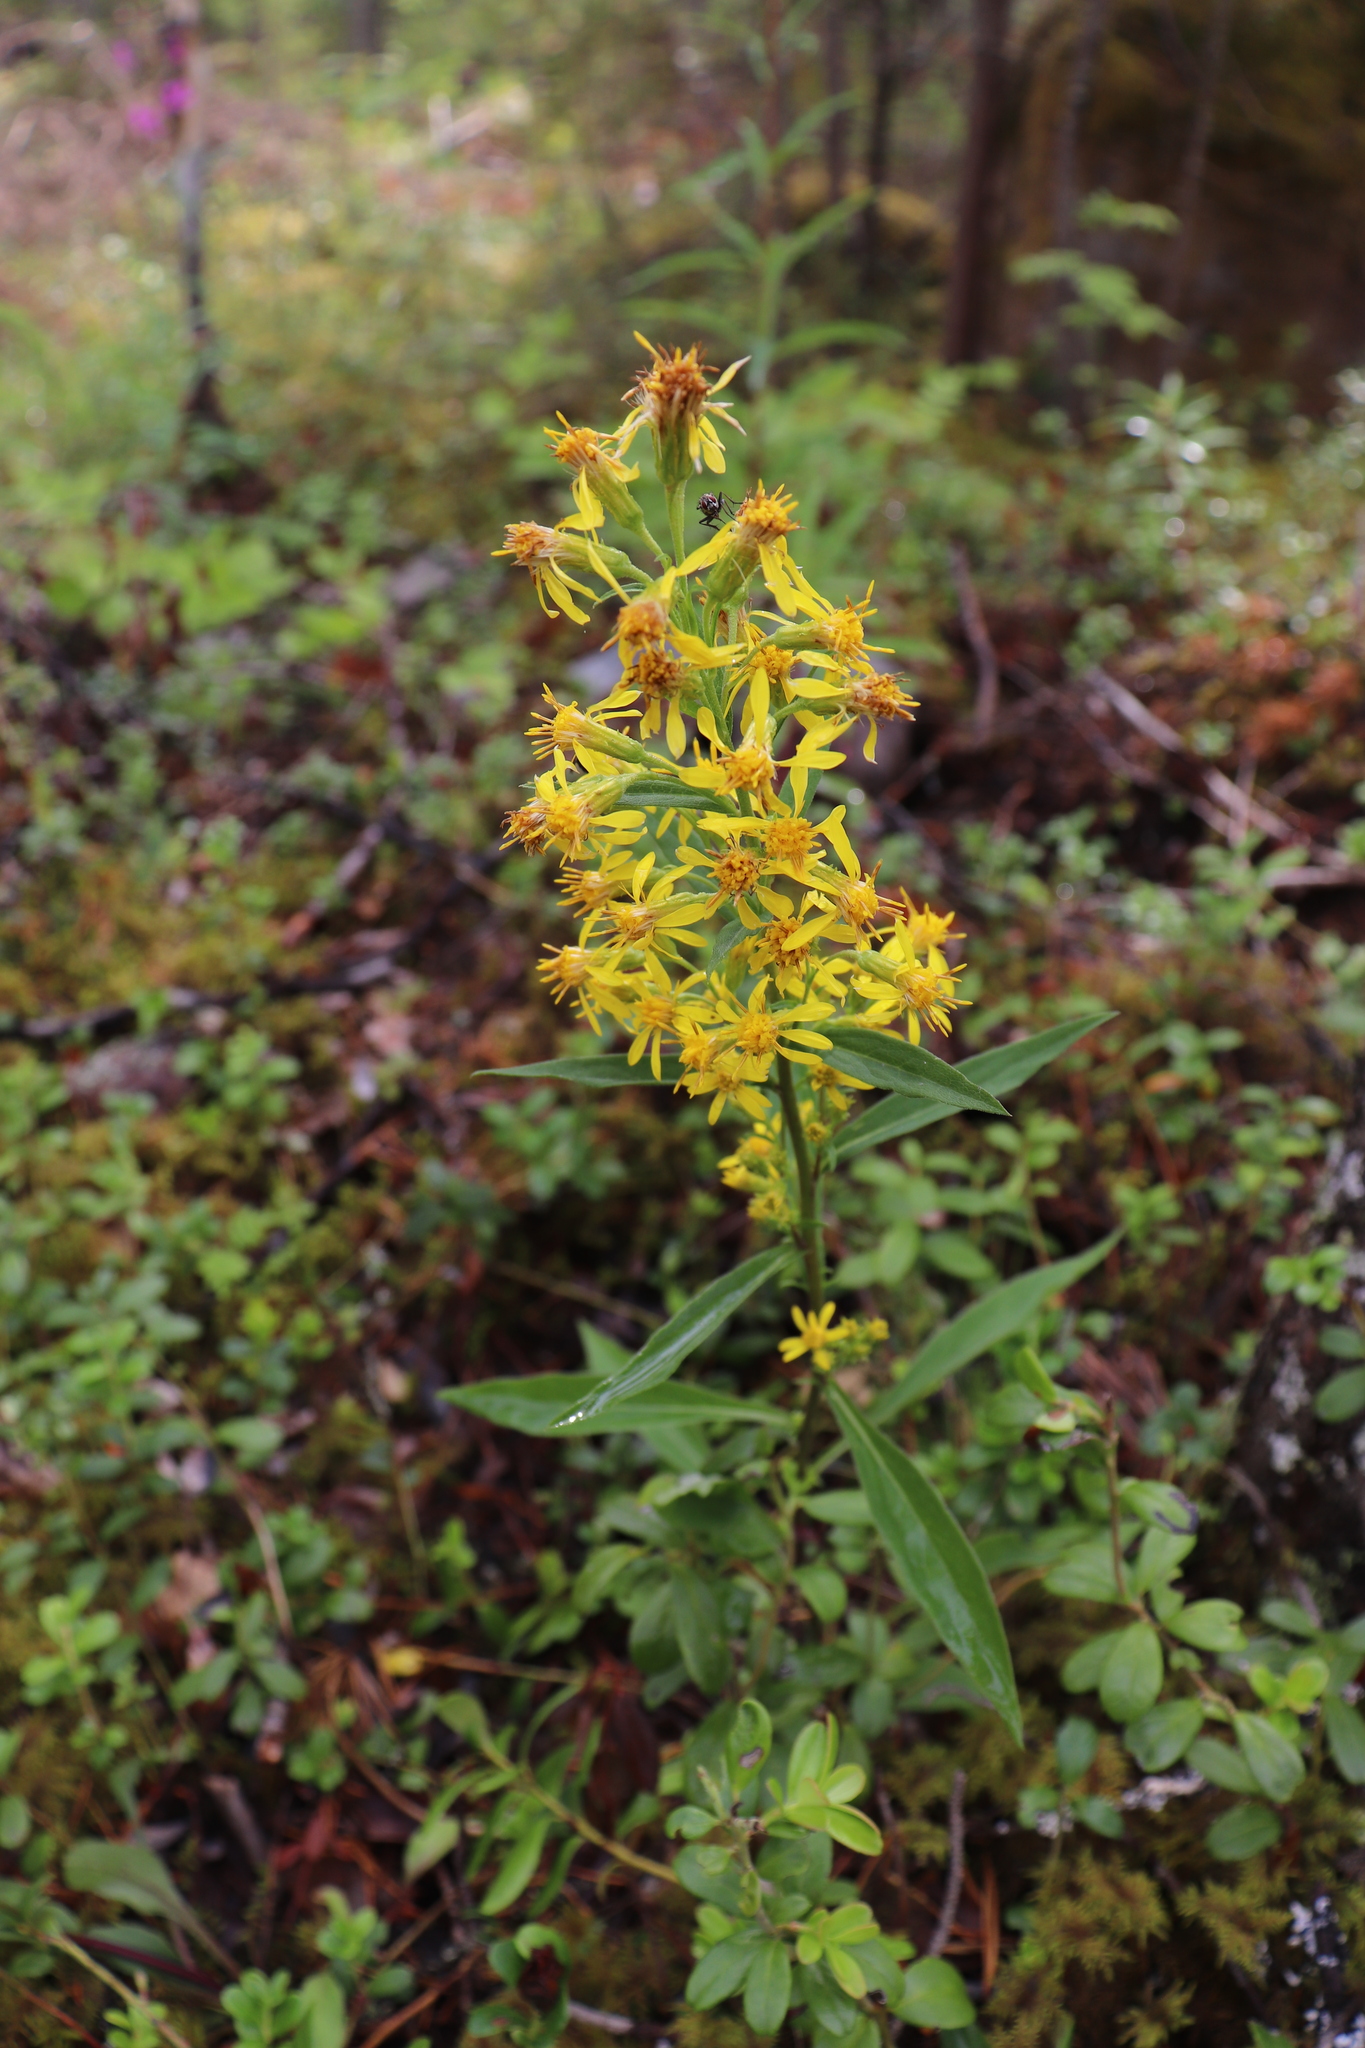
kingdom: Plantae
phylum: Tracheophyta
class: Magnoliopsida
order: Asterales
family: Asteraceae
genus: Solidago
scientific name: Solidago virgaurea
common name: Goldenrod
